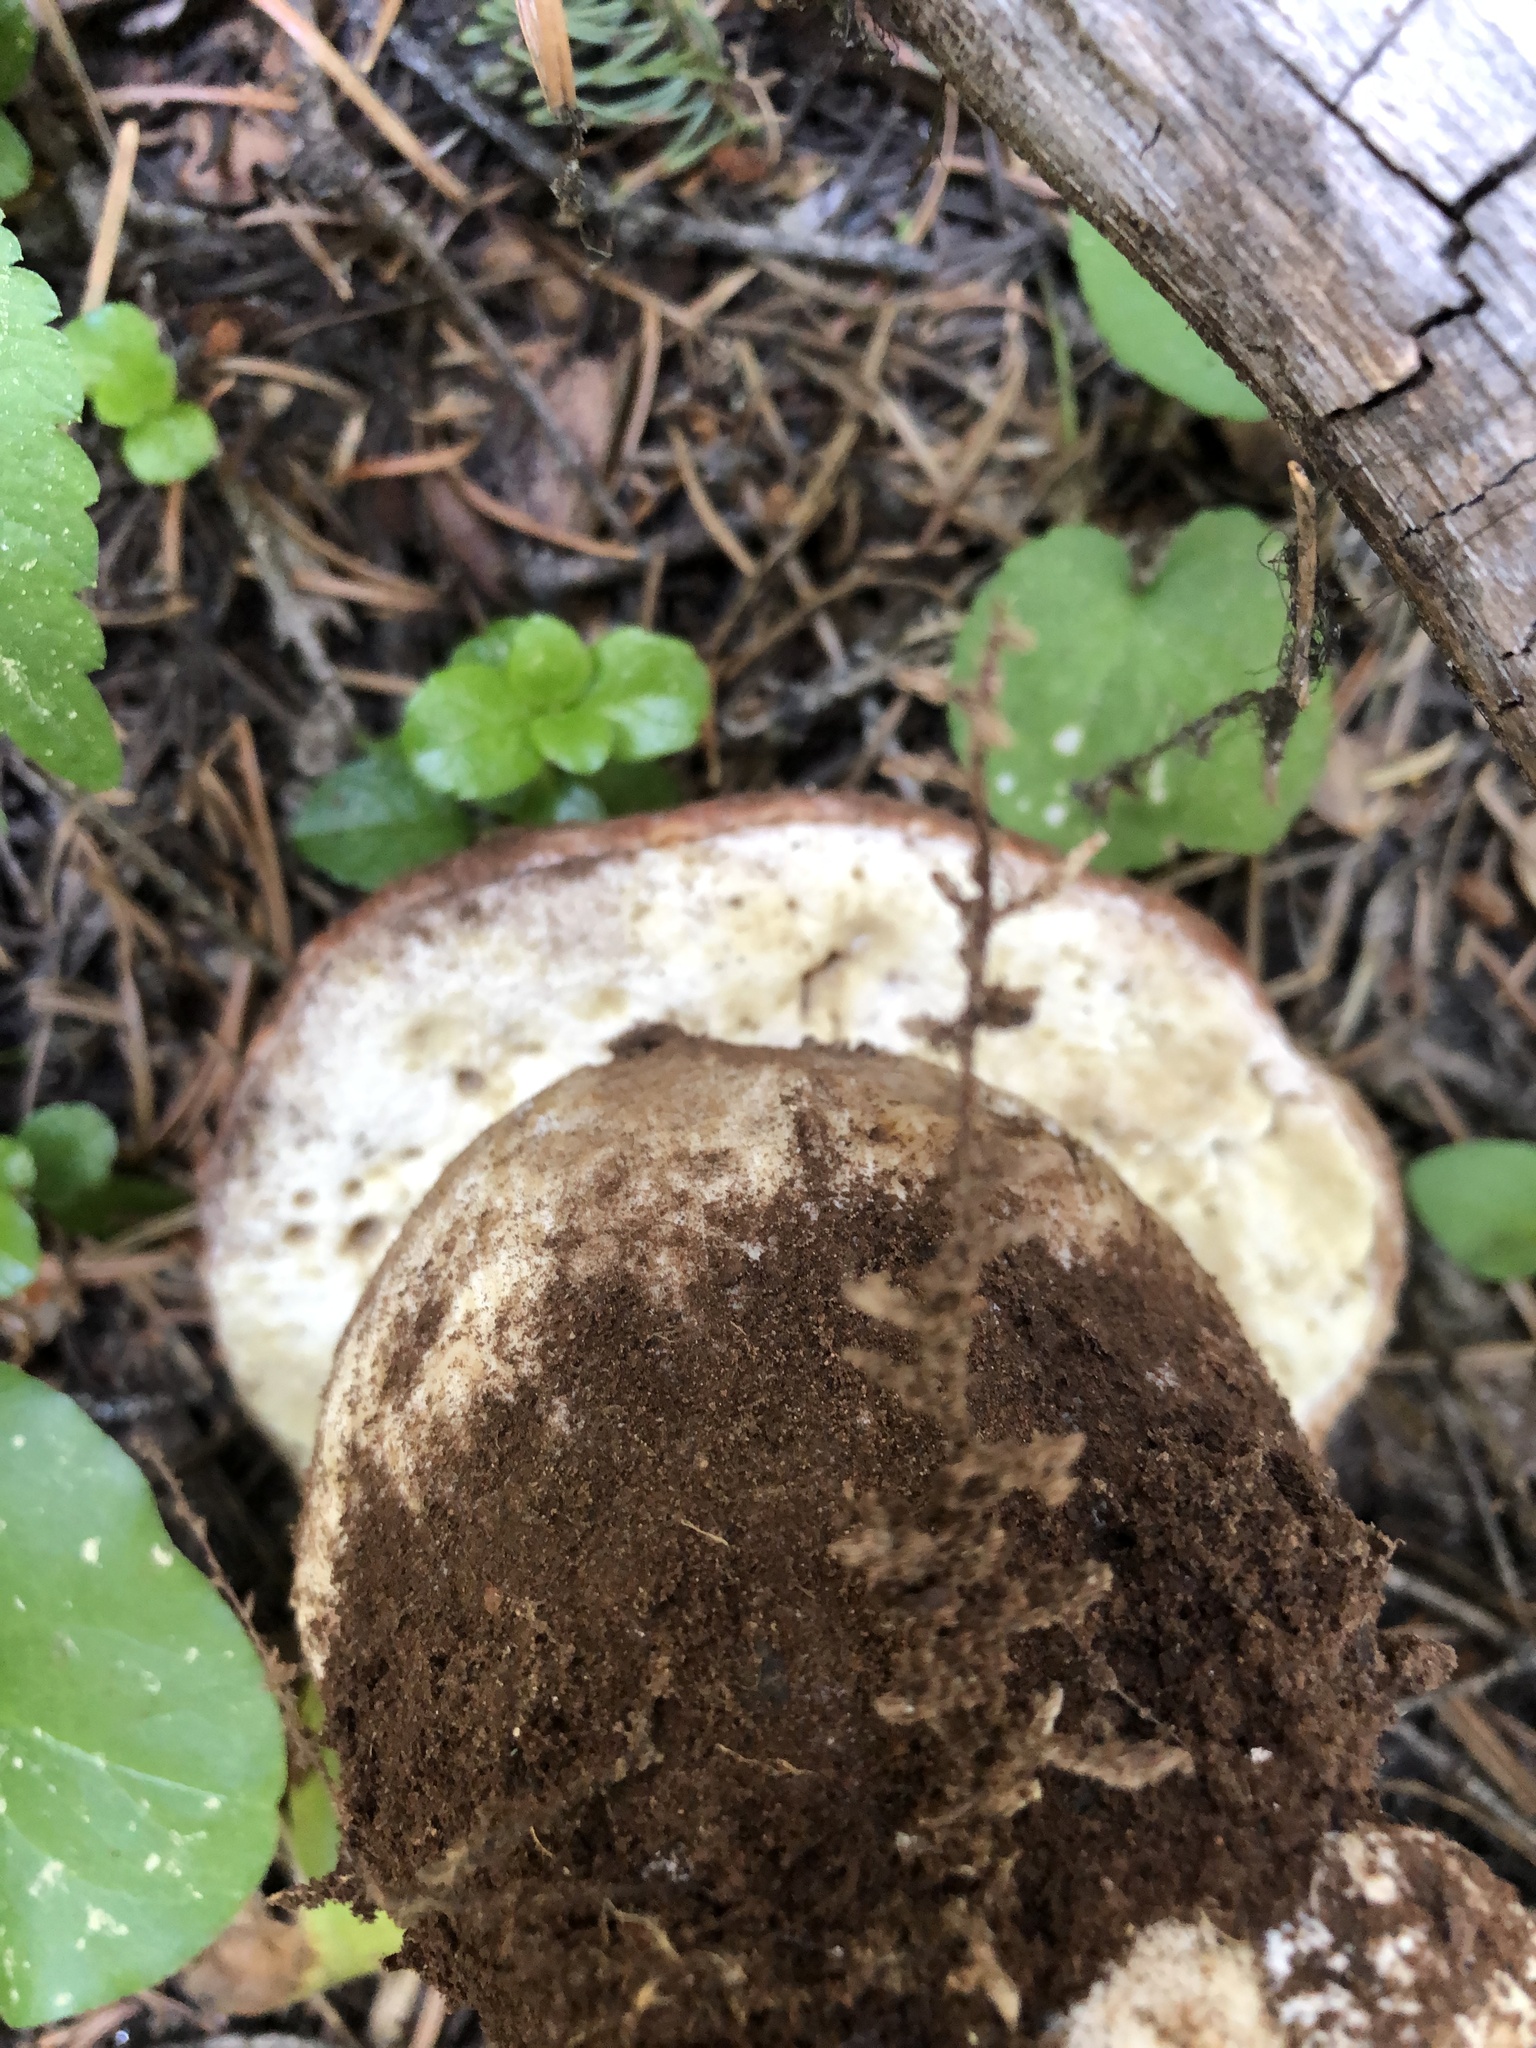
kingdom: Fungi
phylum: Basidiomycota
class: Agaricomycetes
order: Boletales
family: Boletaceae
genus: Boletus
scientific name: Boletus rex-veris
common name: Spring king
